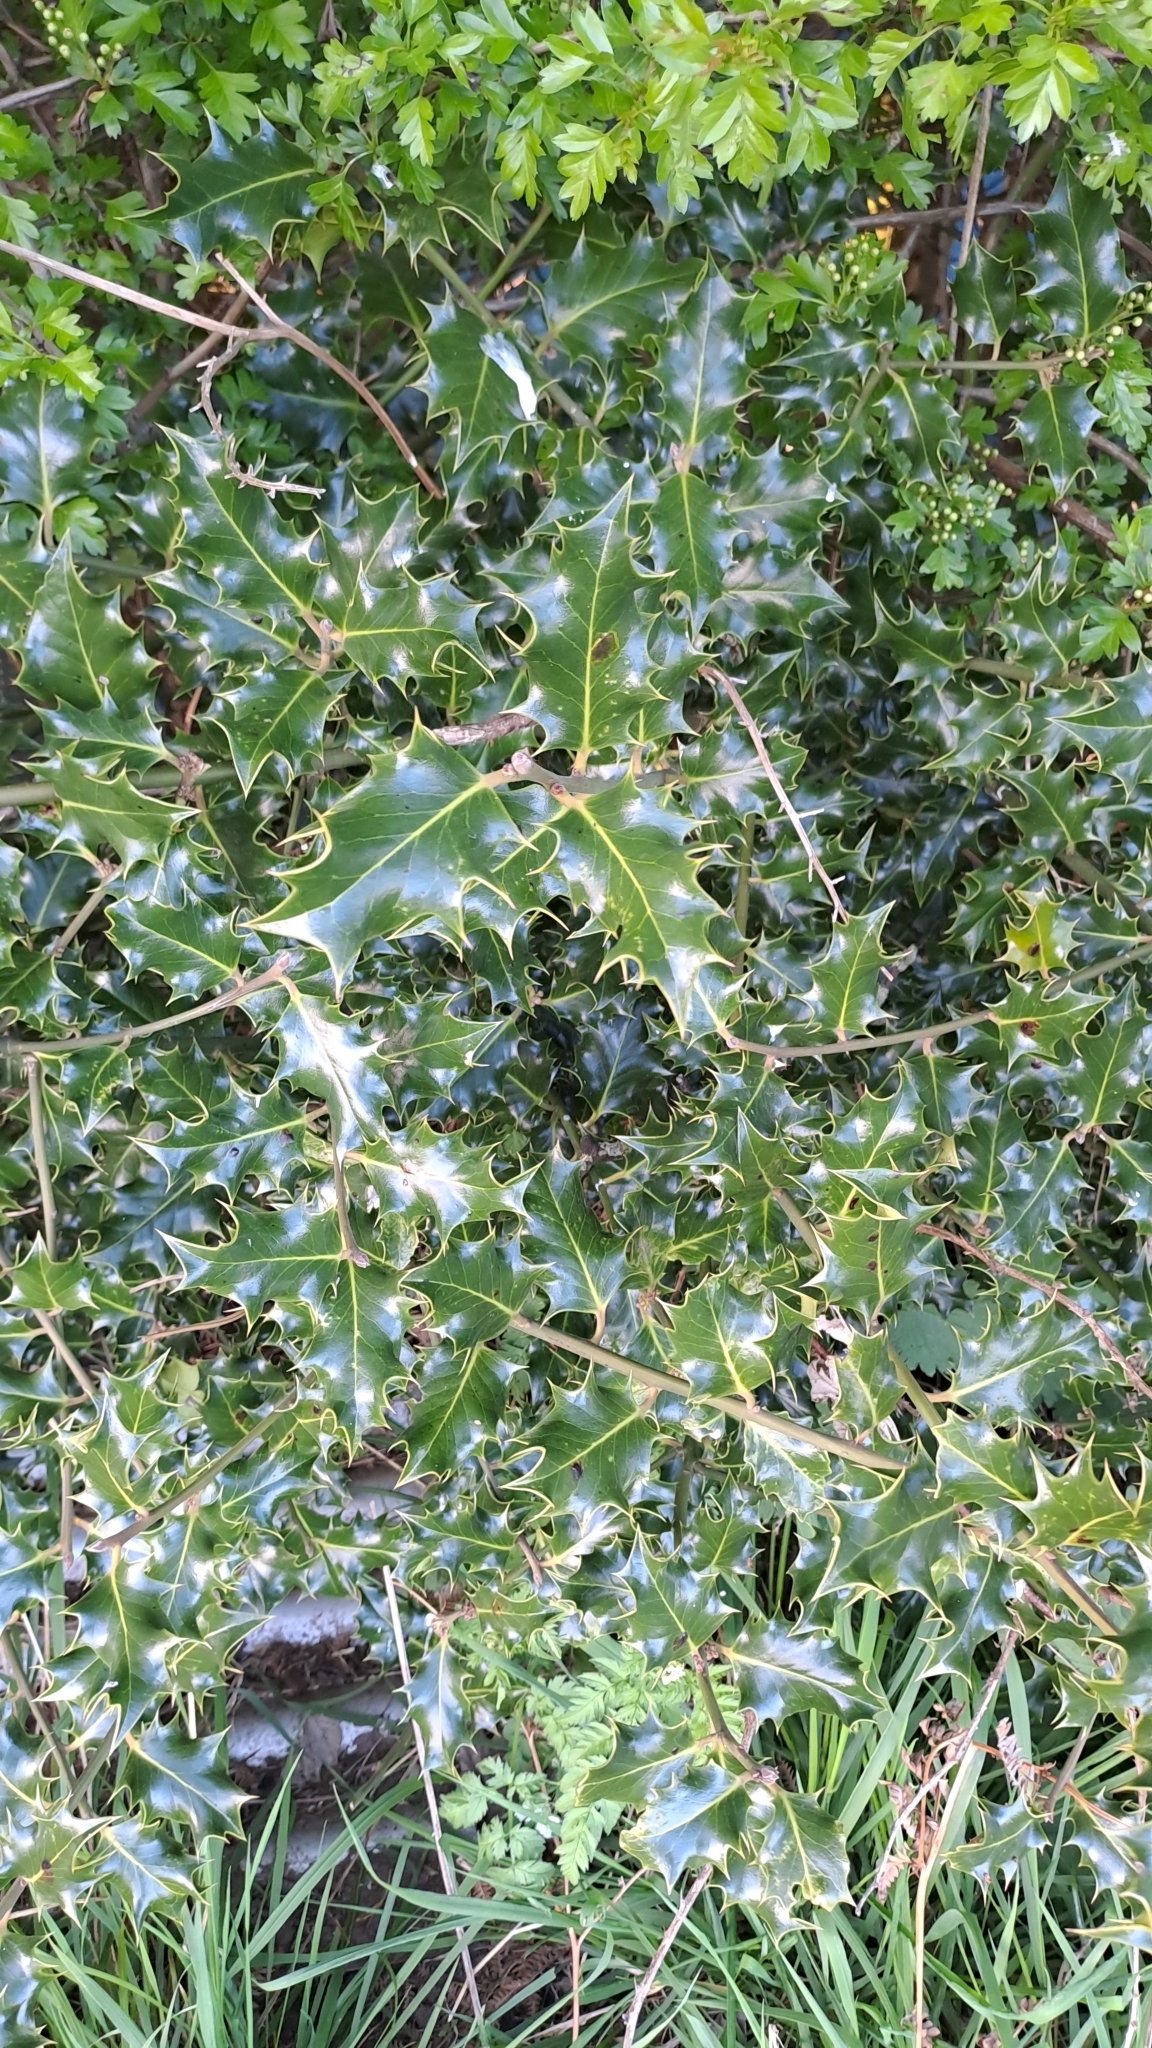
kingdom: Plantae
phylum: Tracheophyta
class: Magnoliopsida
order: Aquifoliales
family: Aquifoliaceae
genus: Ilex
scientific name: Ilex aquifolium
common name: English holly
